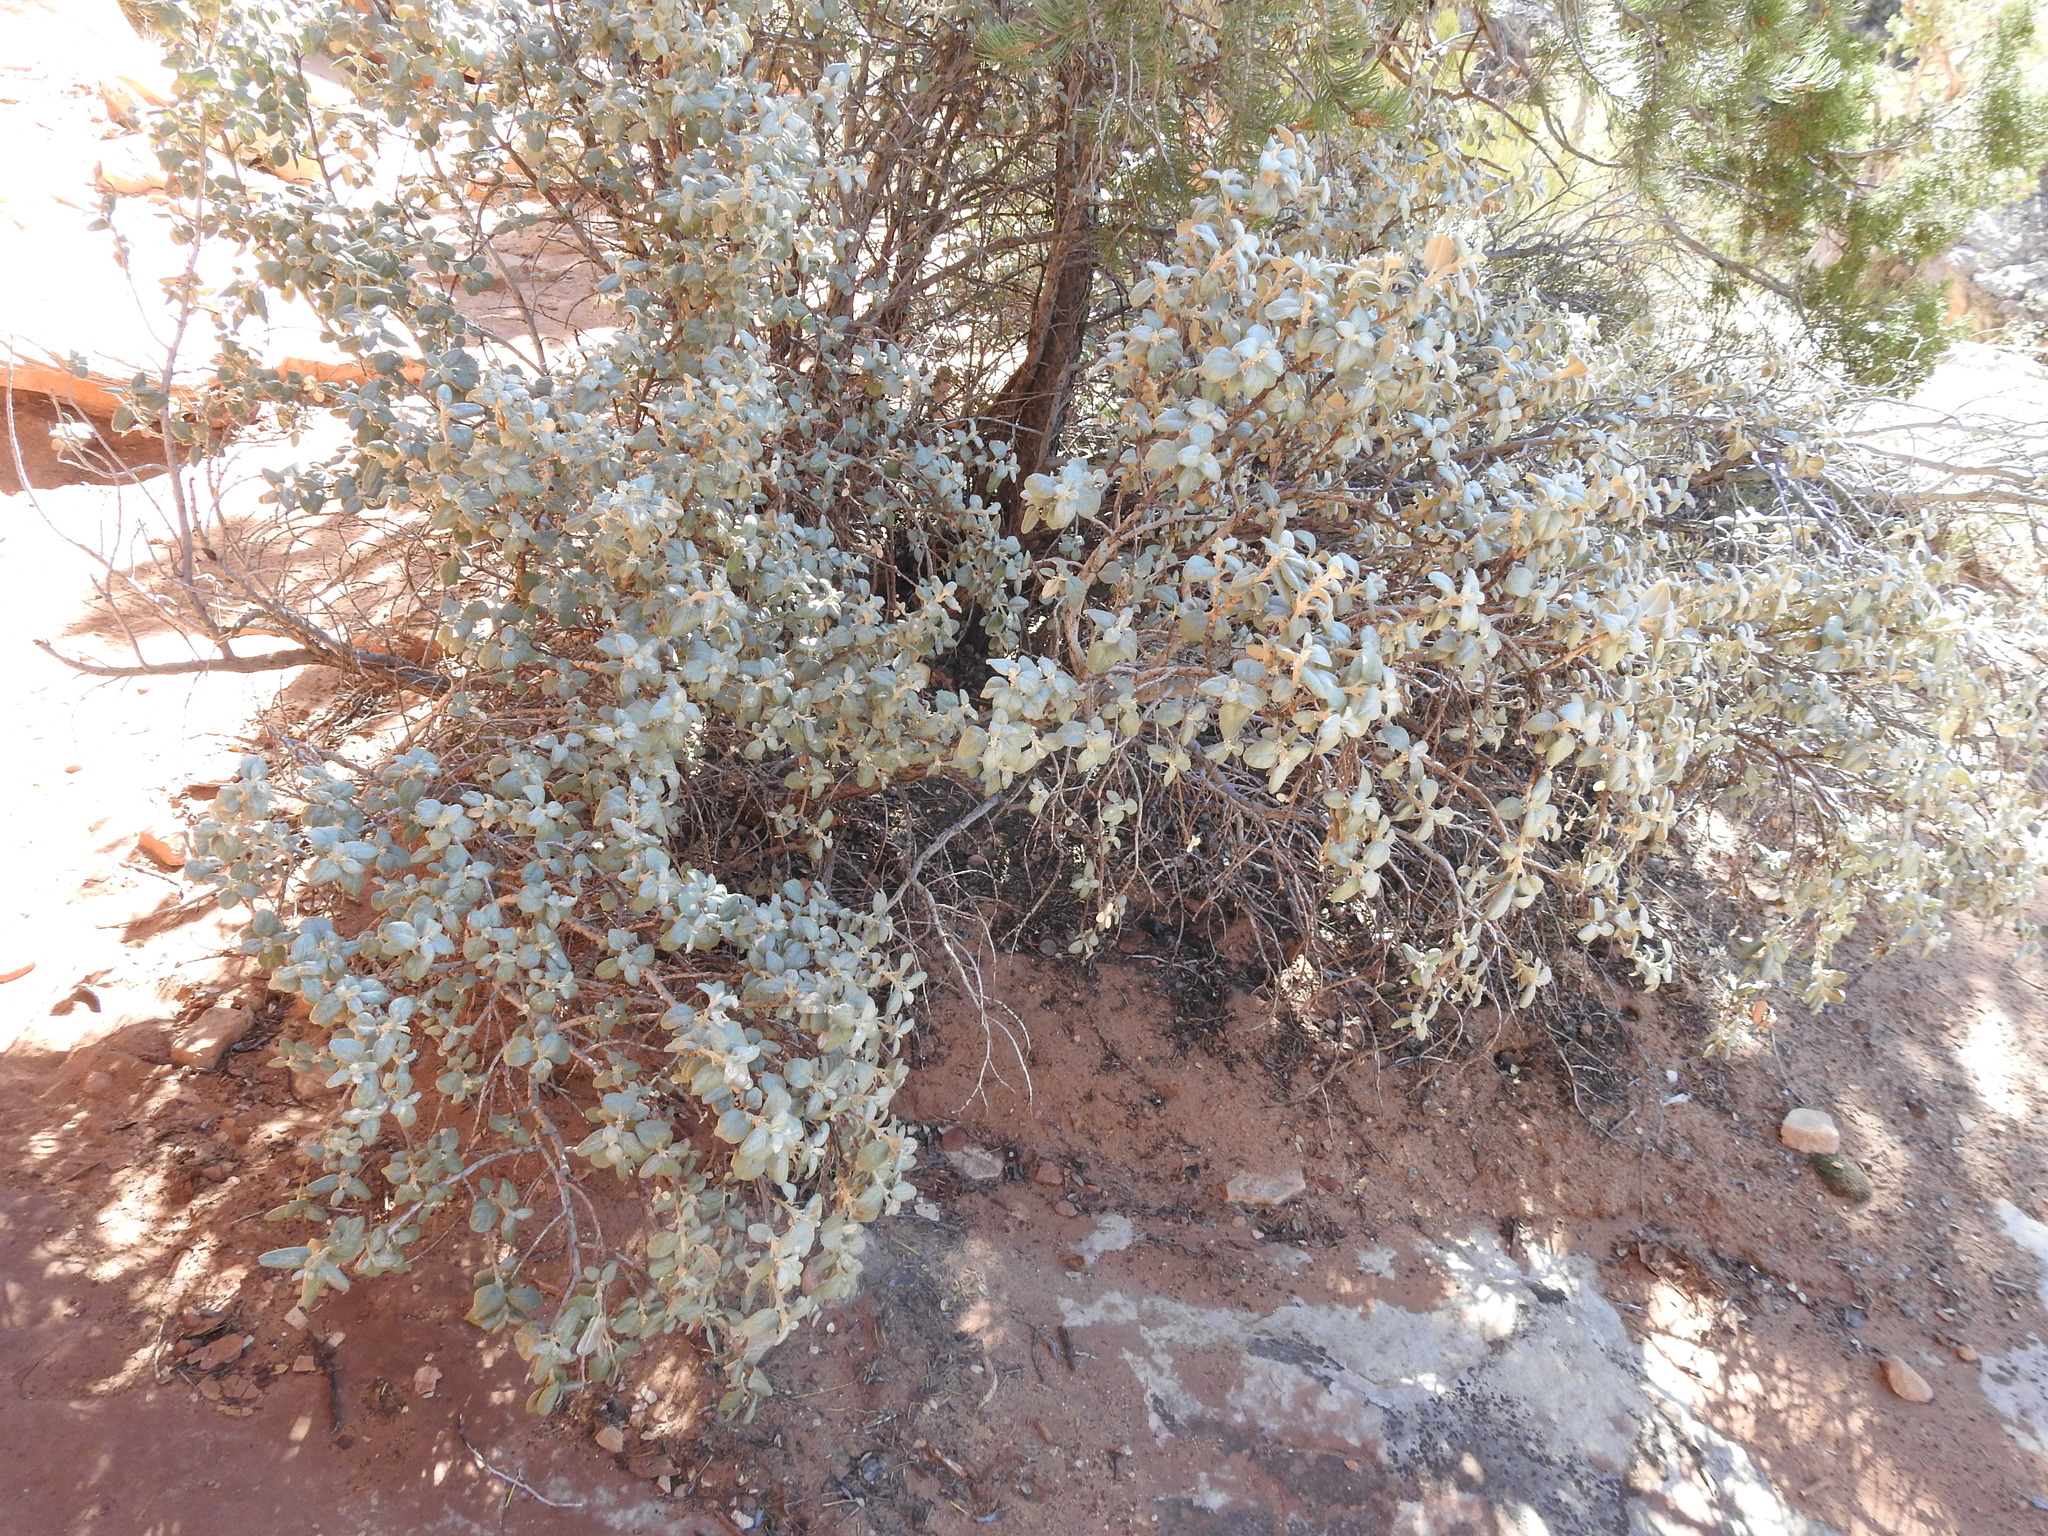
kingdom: Plantae
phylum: Tracheophyta
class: Magnoliopsida
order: Rosales
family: Elaeagnaceae
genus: Shepherdia
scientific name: Shepherdia rotundifolia
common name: Silverscale
